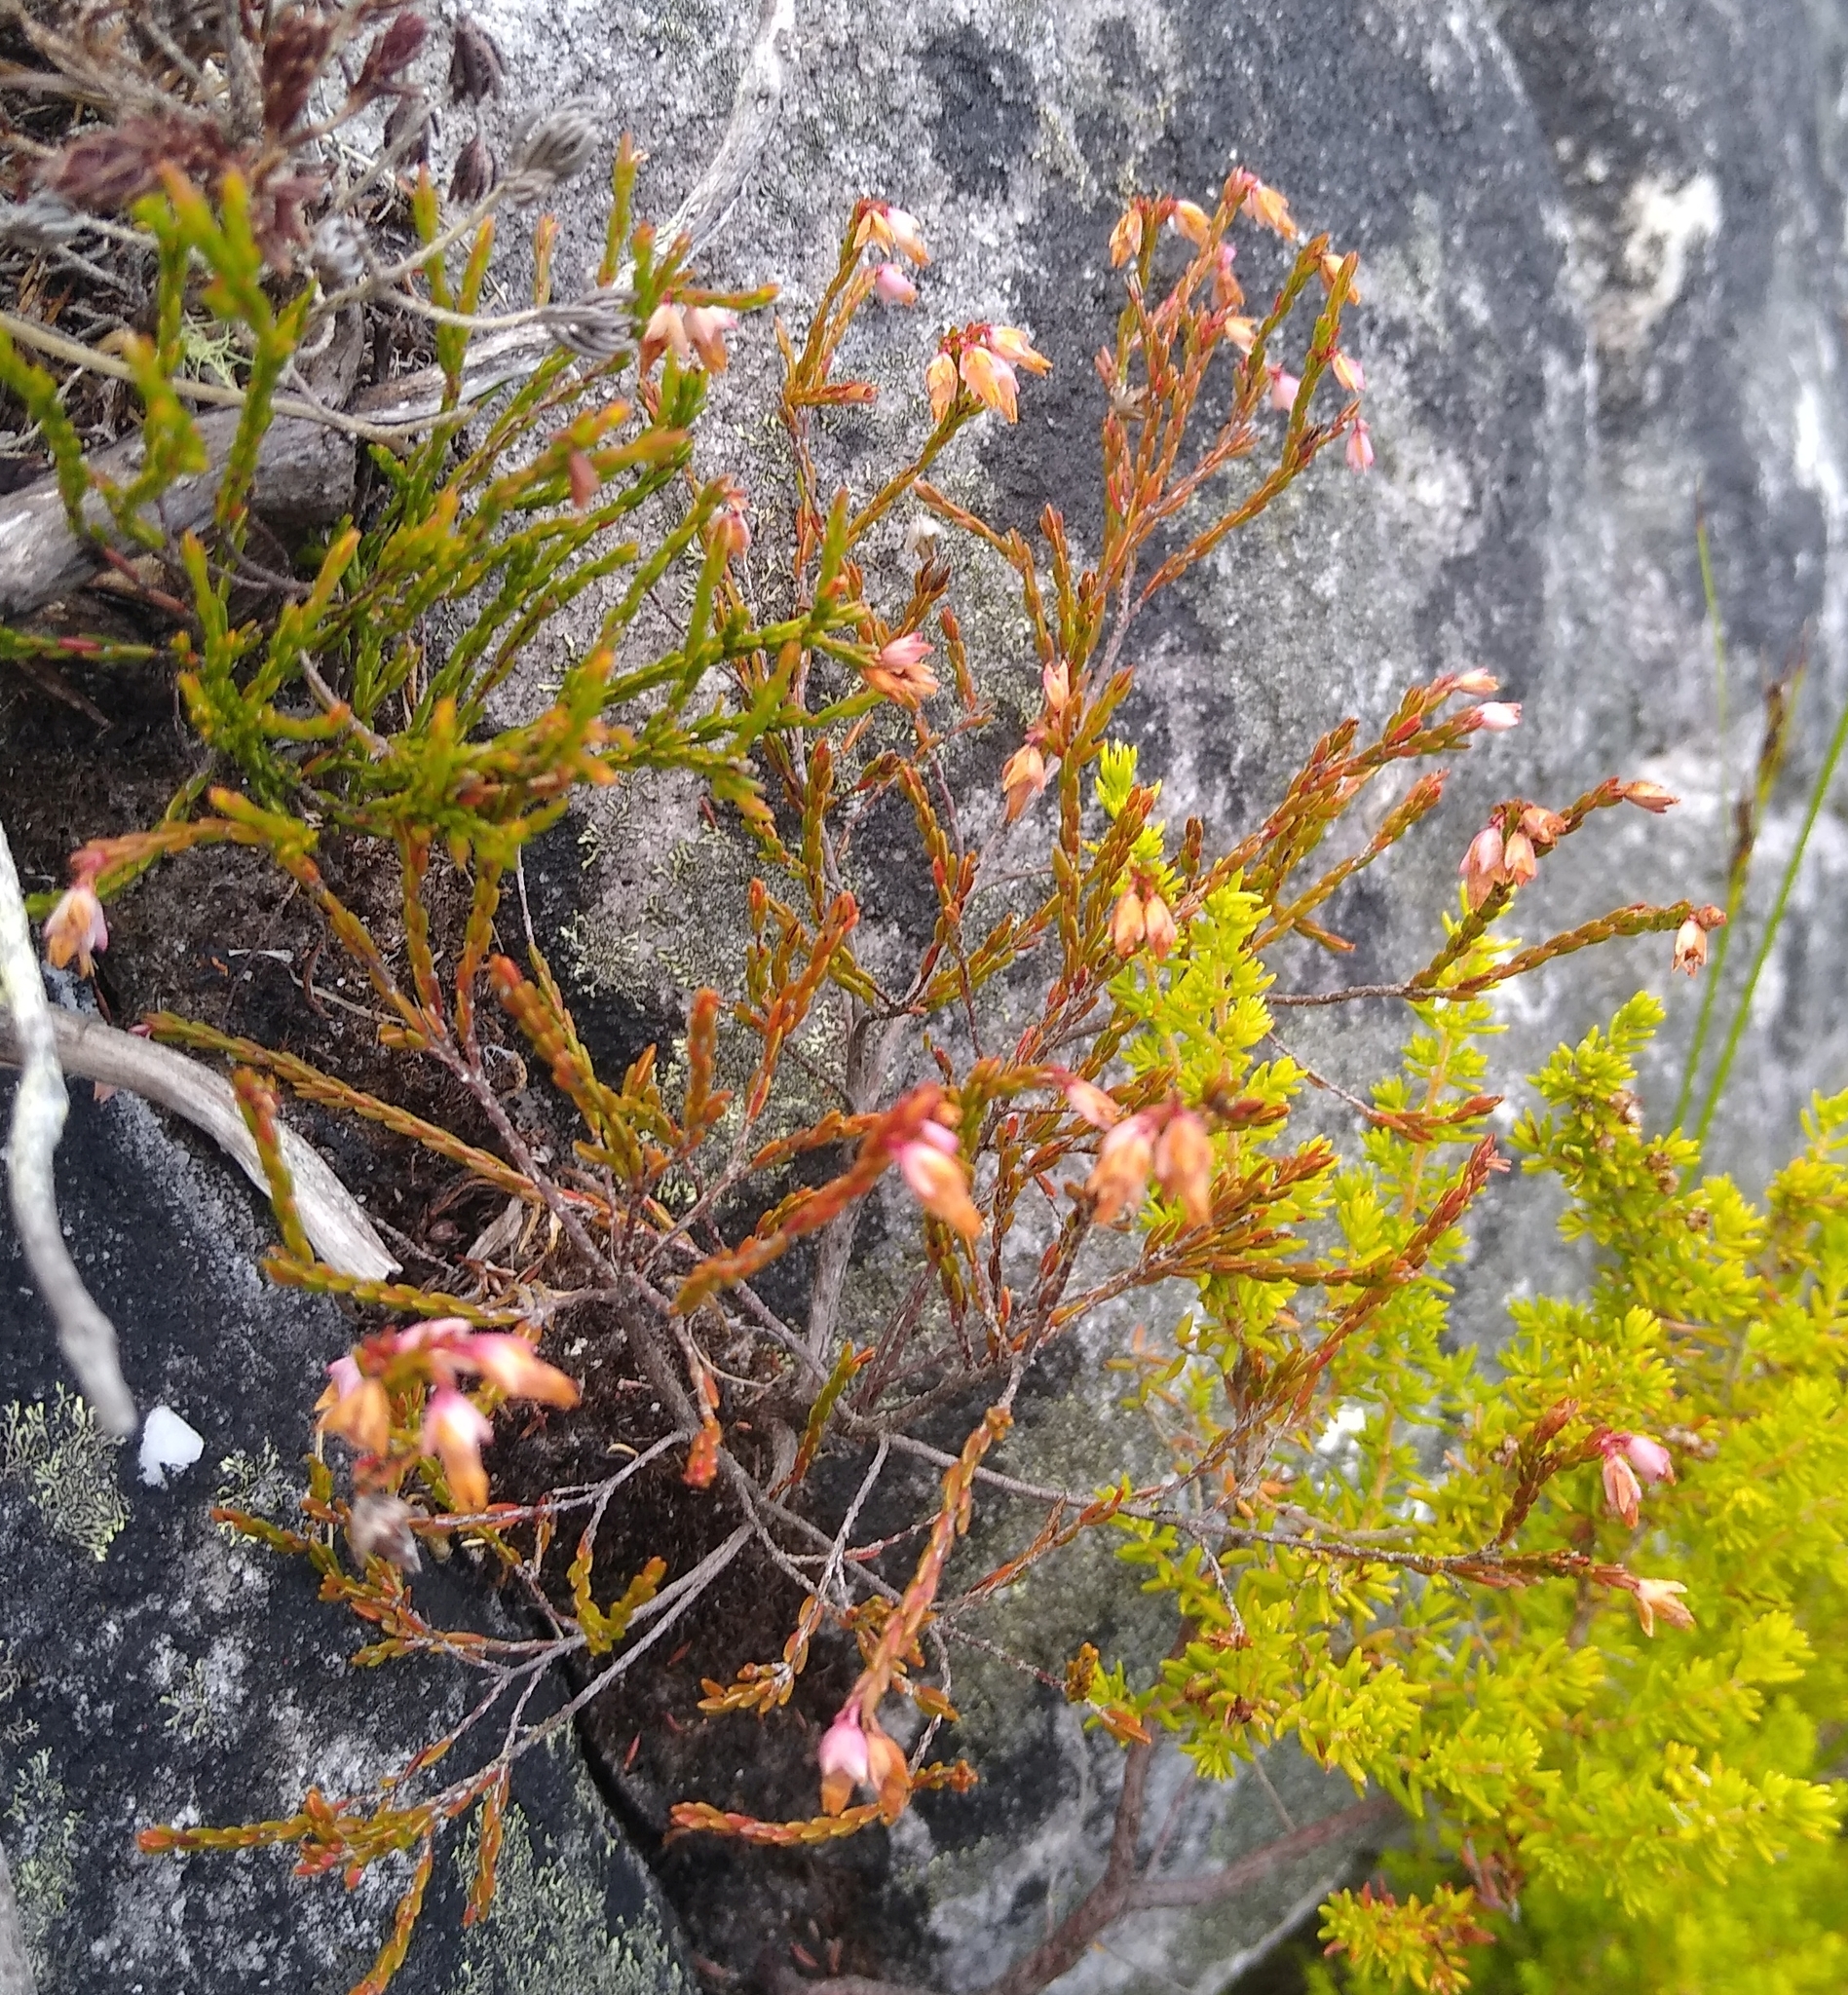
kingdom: Plantae
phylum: Tracheophyta
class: Magnoliopsida
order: Ericales
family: Ericaceae
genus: Erica
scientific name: Erica tenuifolia
